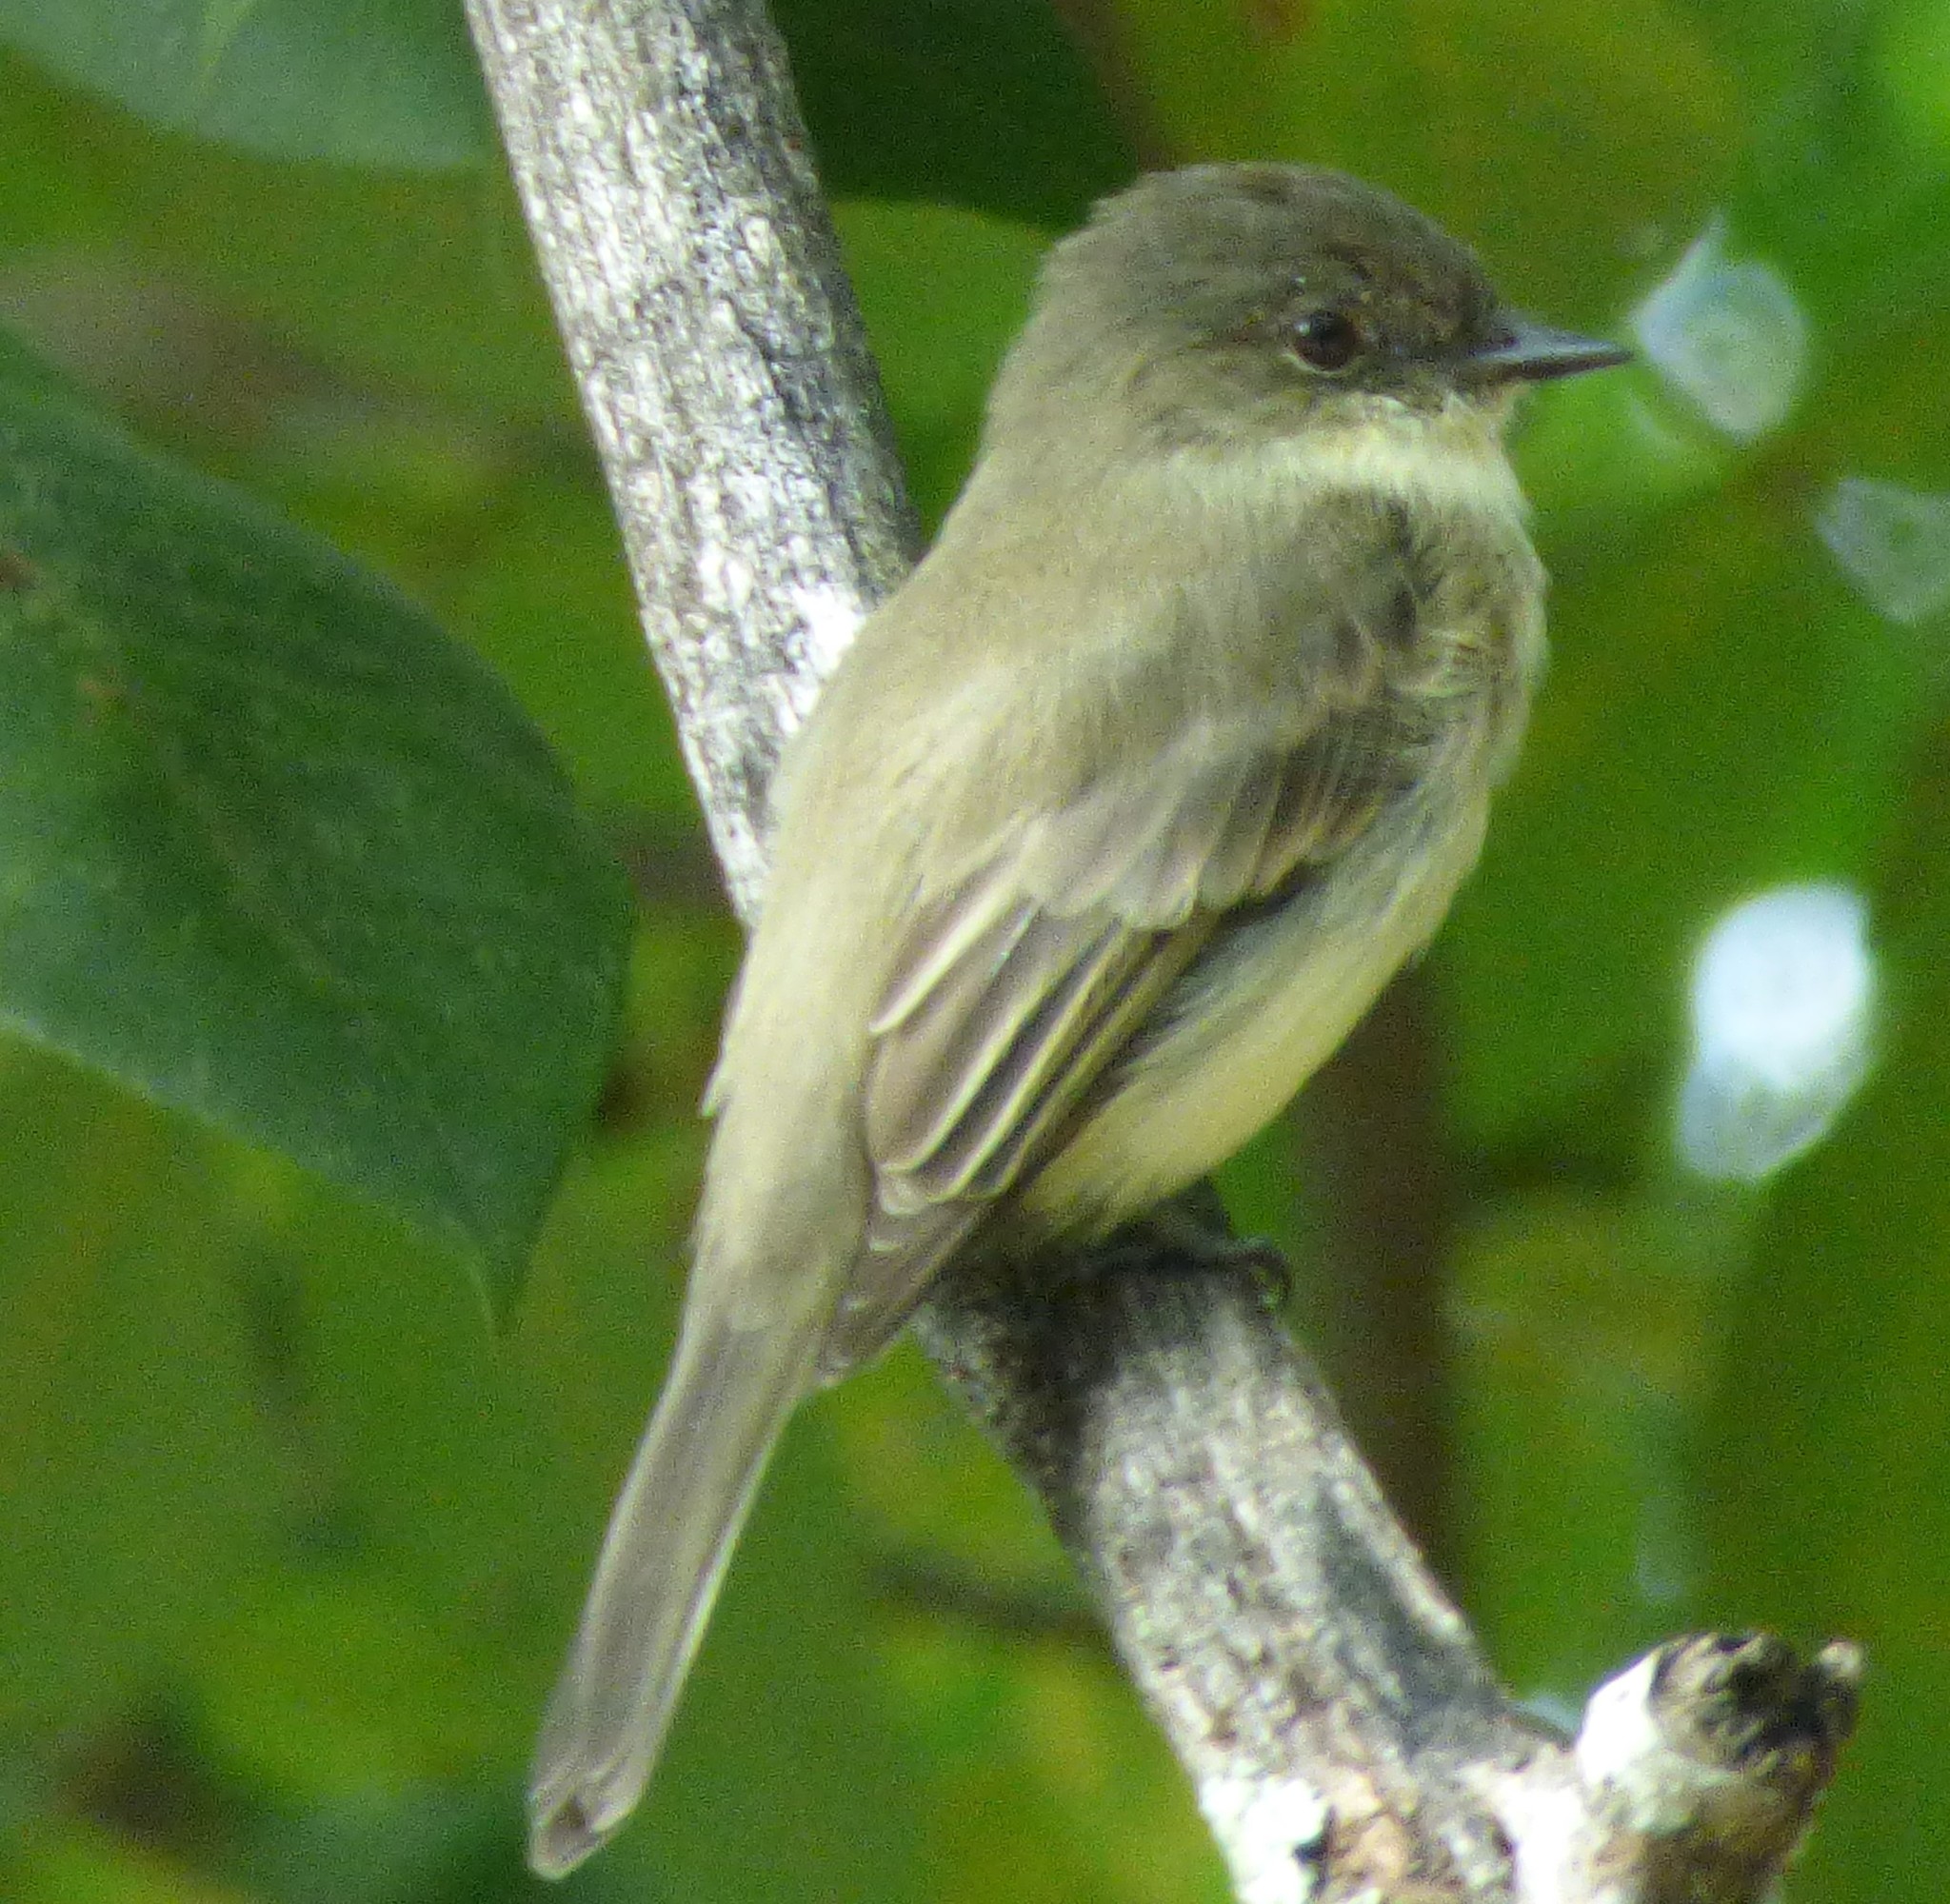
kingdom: Animalia
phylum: Chordata
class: Aves
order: Passeriformes
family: Tyrannidae
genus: Sayornis
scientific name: Sayornis phoebe
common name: Eastern phoebe
